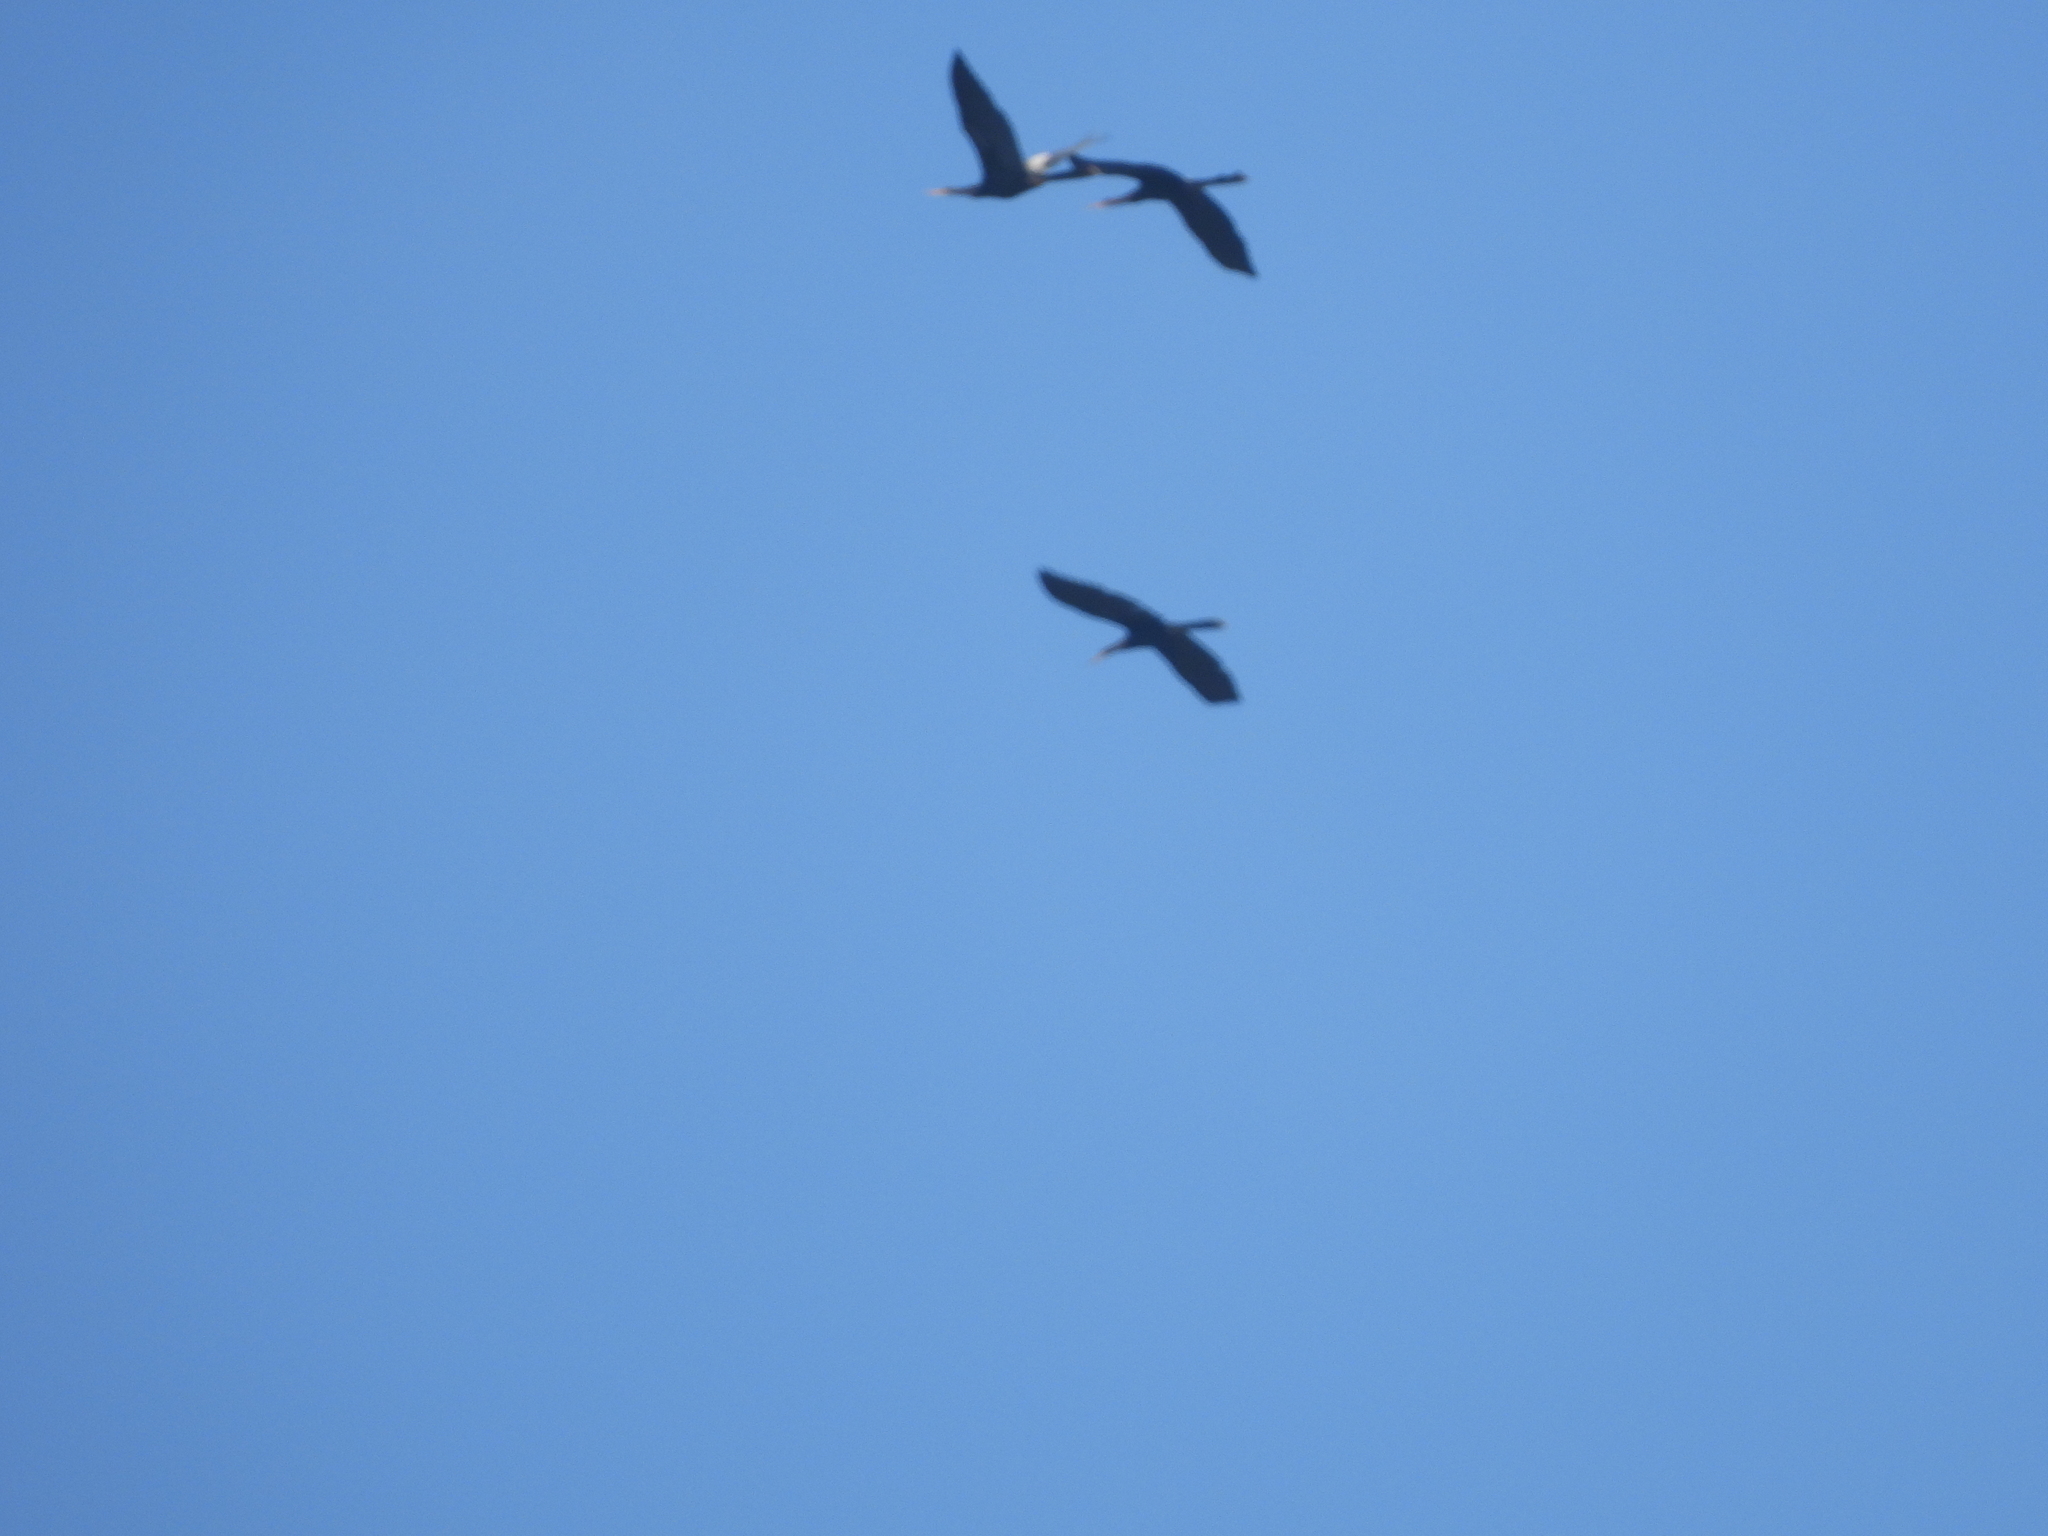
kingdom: Animalia
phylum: Chordata
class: Aves
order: Suliformes
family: Anhingidae
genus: Anhinga
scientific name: Anhinga anhinga
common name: Anhinga
